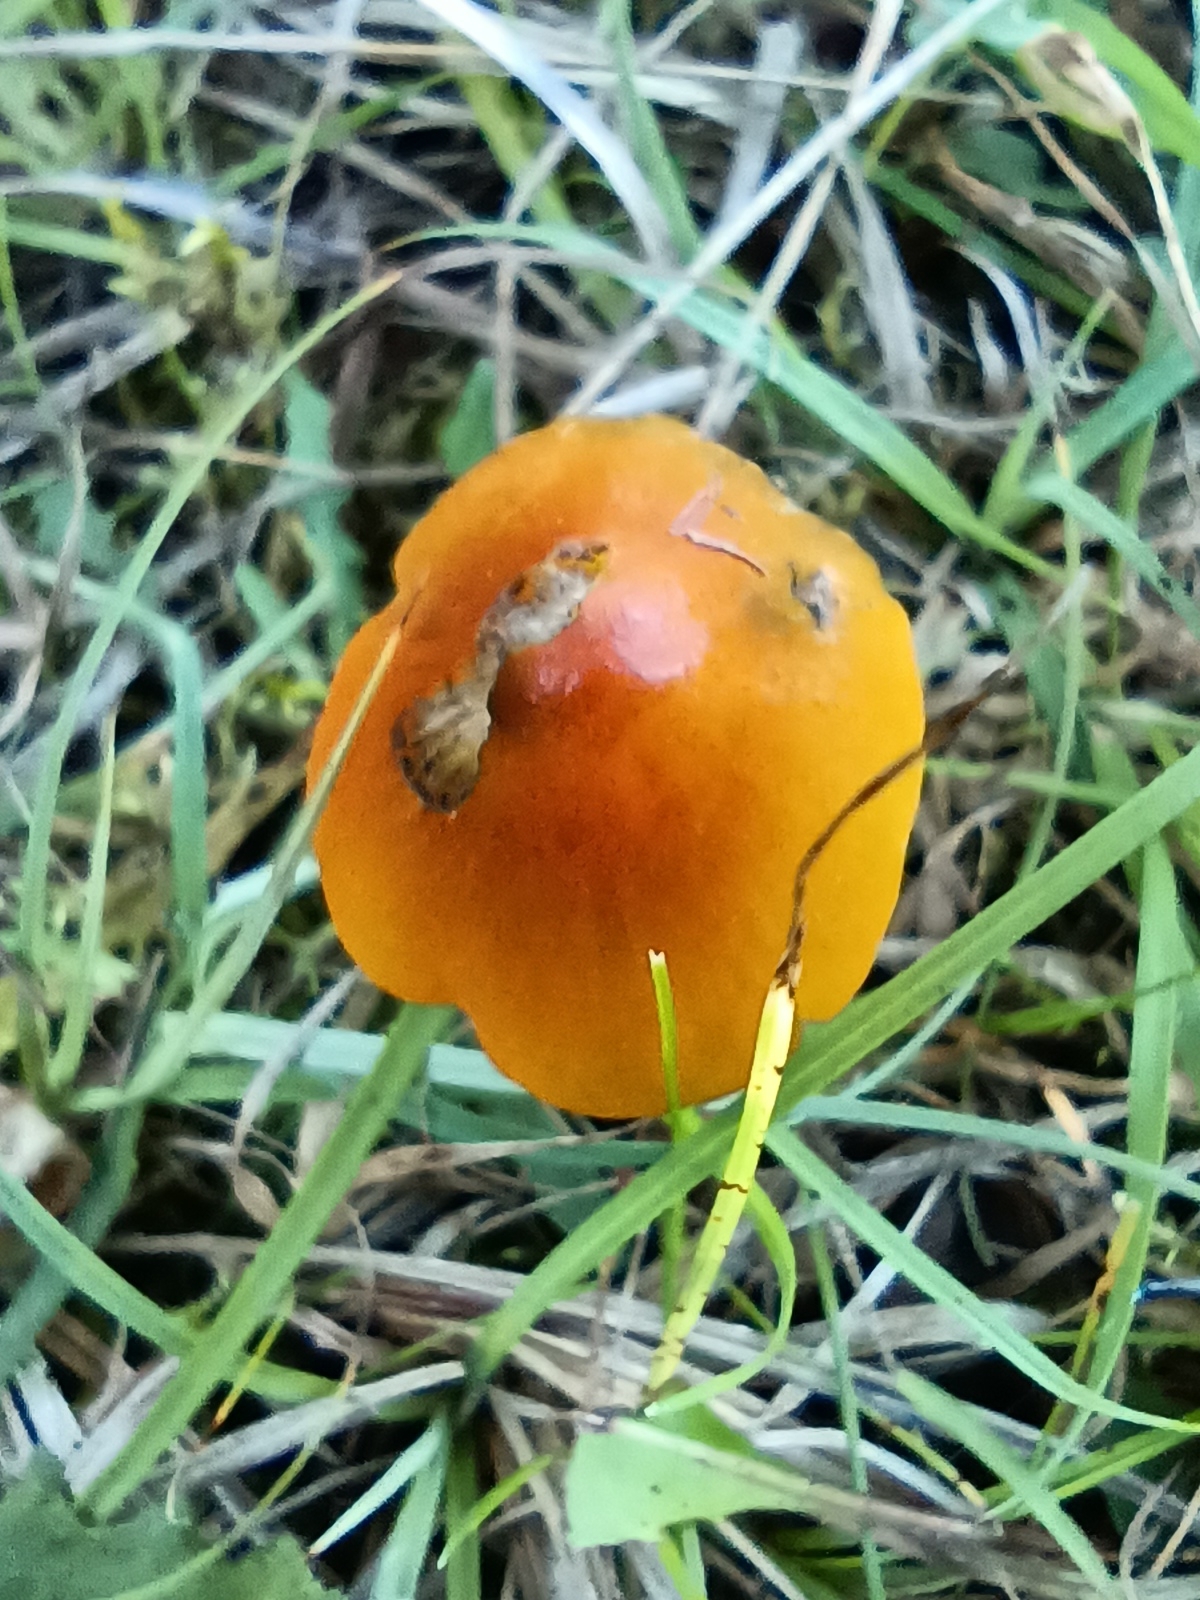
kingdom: Fungi
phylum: Basidiomycota
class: Agaricomycetes
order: Agaricales
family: Hygrophoraceae
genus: Hygrocybe
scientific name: Hygrocybe conica
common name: Blackening wax-cap
